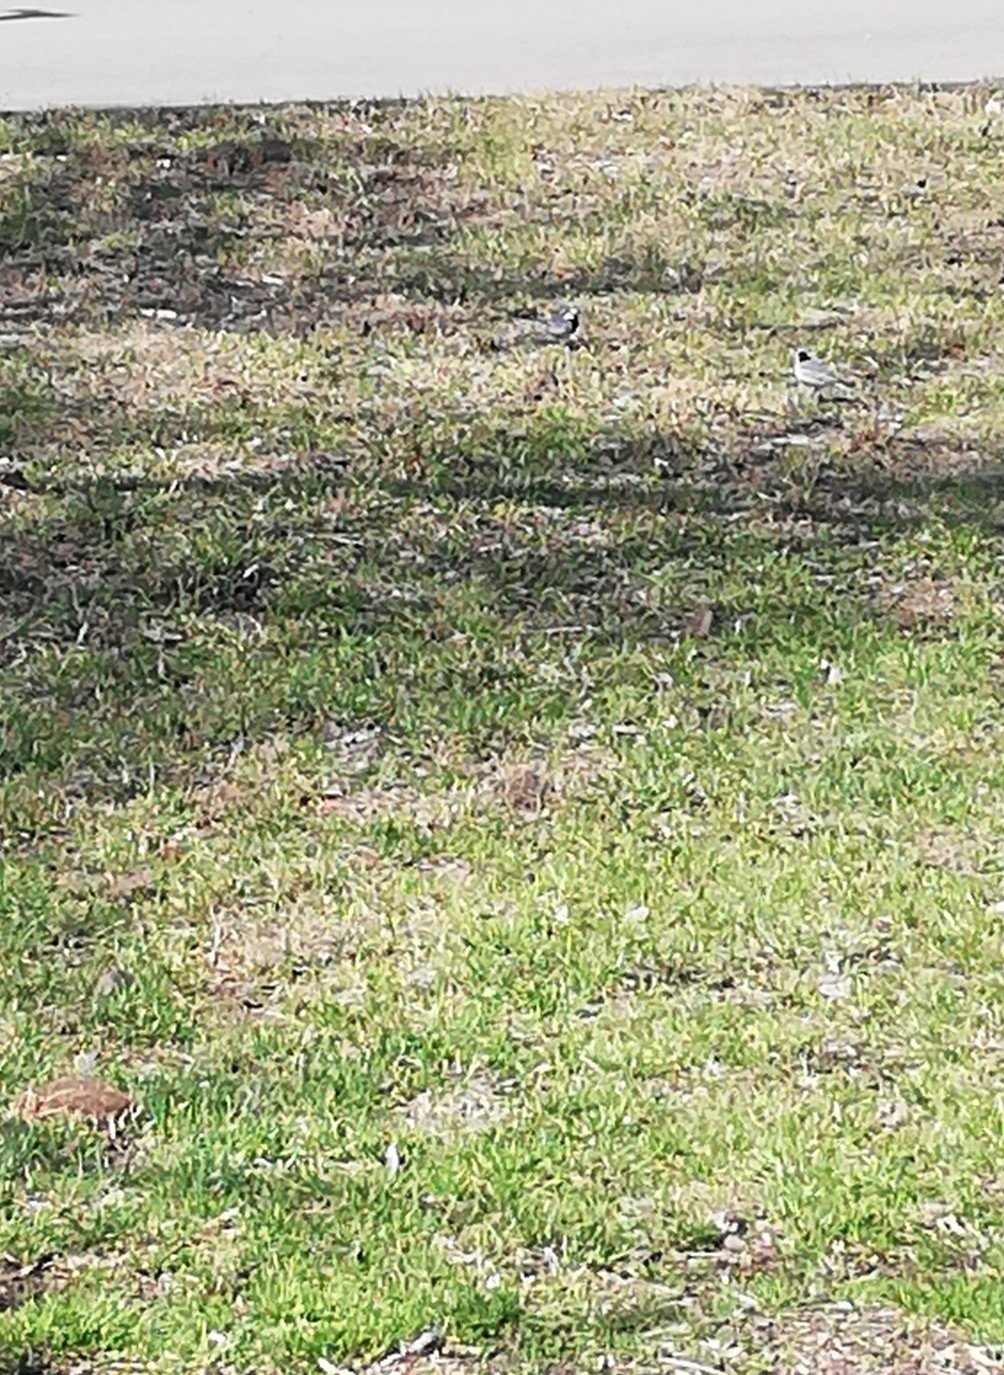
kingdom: Animalia
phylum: Chordata
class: Aves
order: Passeriformes
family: Motacillidae
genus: Motacilla
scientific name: Motacilla alba
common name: White wagtail
